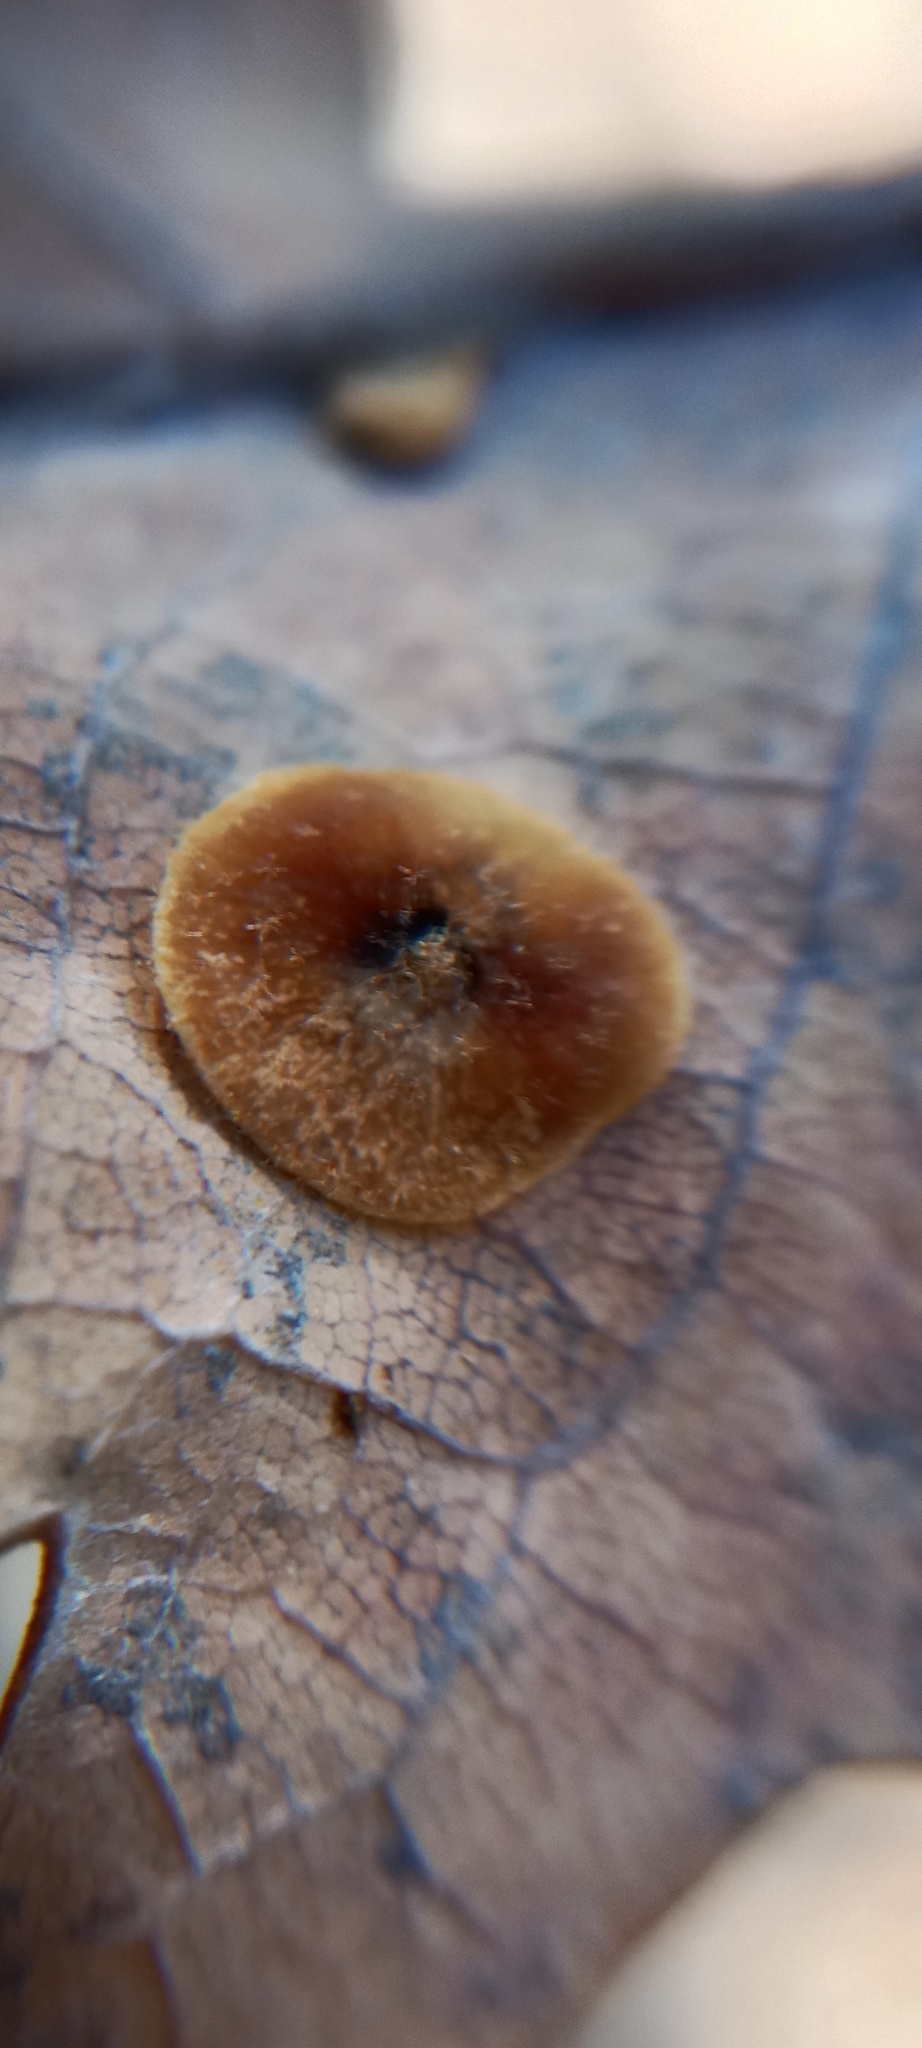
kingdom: Animalia
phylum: Arthropoda
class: Insecta
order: Hymenoptera
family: Cynipidae
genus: Neuroterus
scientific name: Neuroterus quercusbaccarum
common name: Common spangle gall
